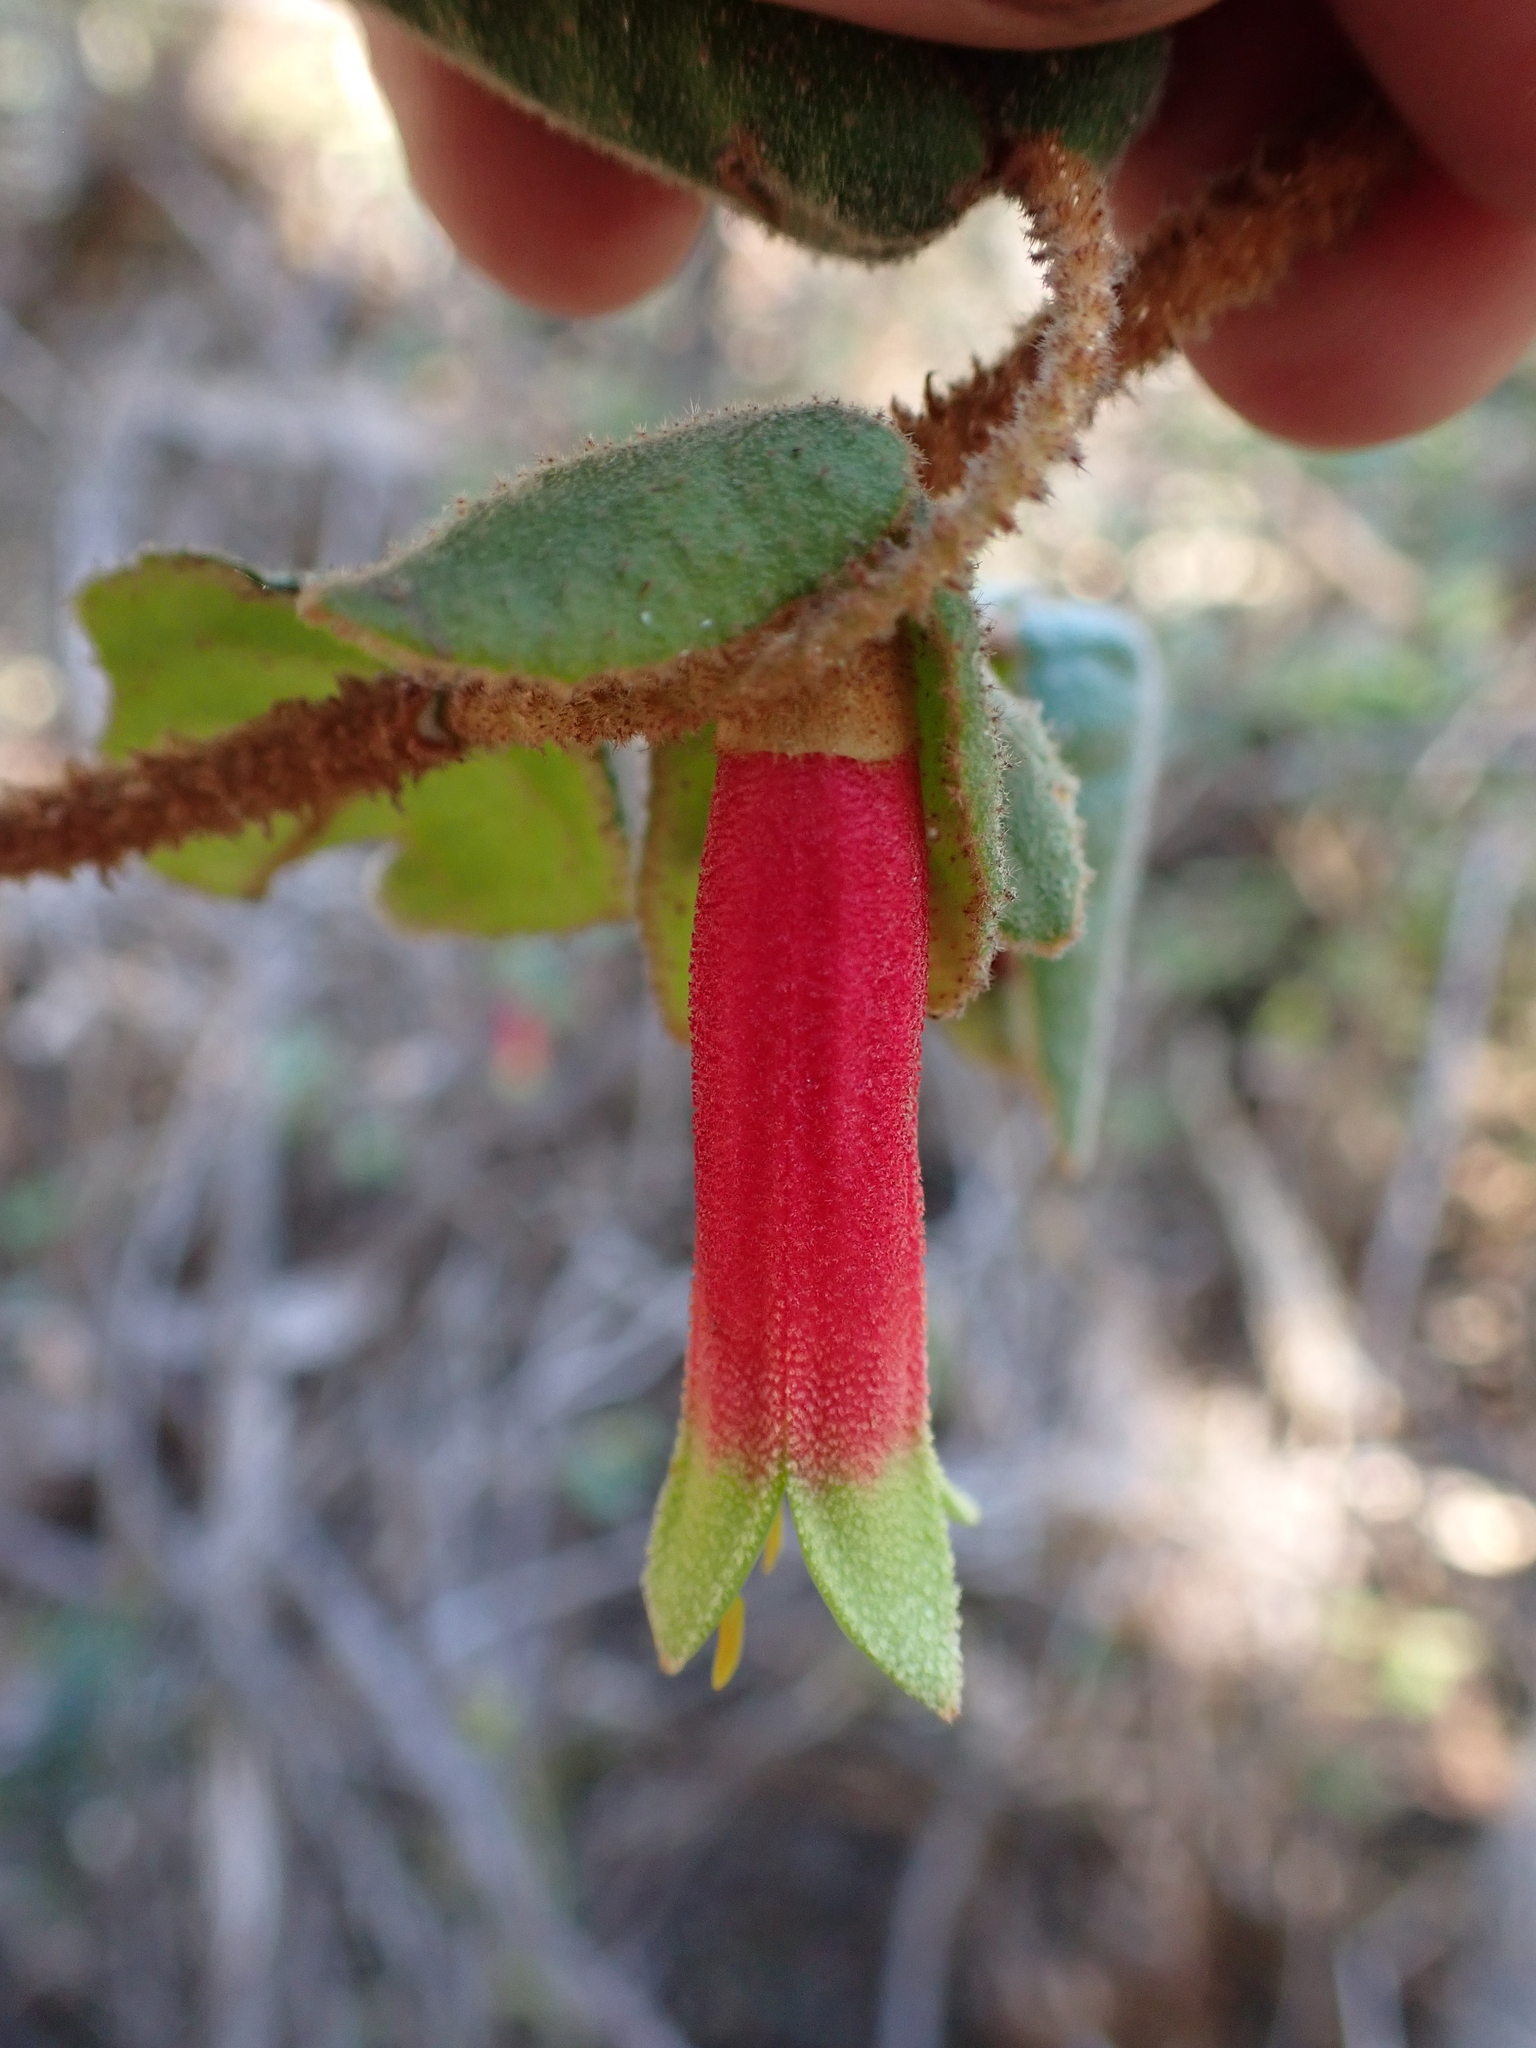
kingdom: Plantae
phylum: Tracheophyta
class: Magnoliopsida
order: Sapindales
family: Rutaceae
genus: Correa
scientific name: Correa reflexa
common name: Common correa
